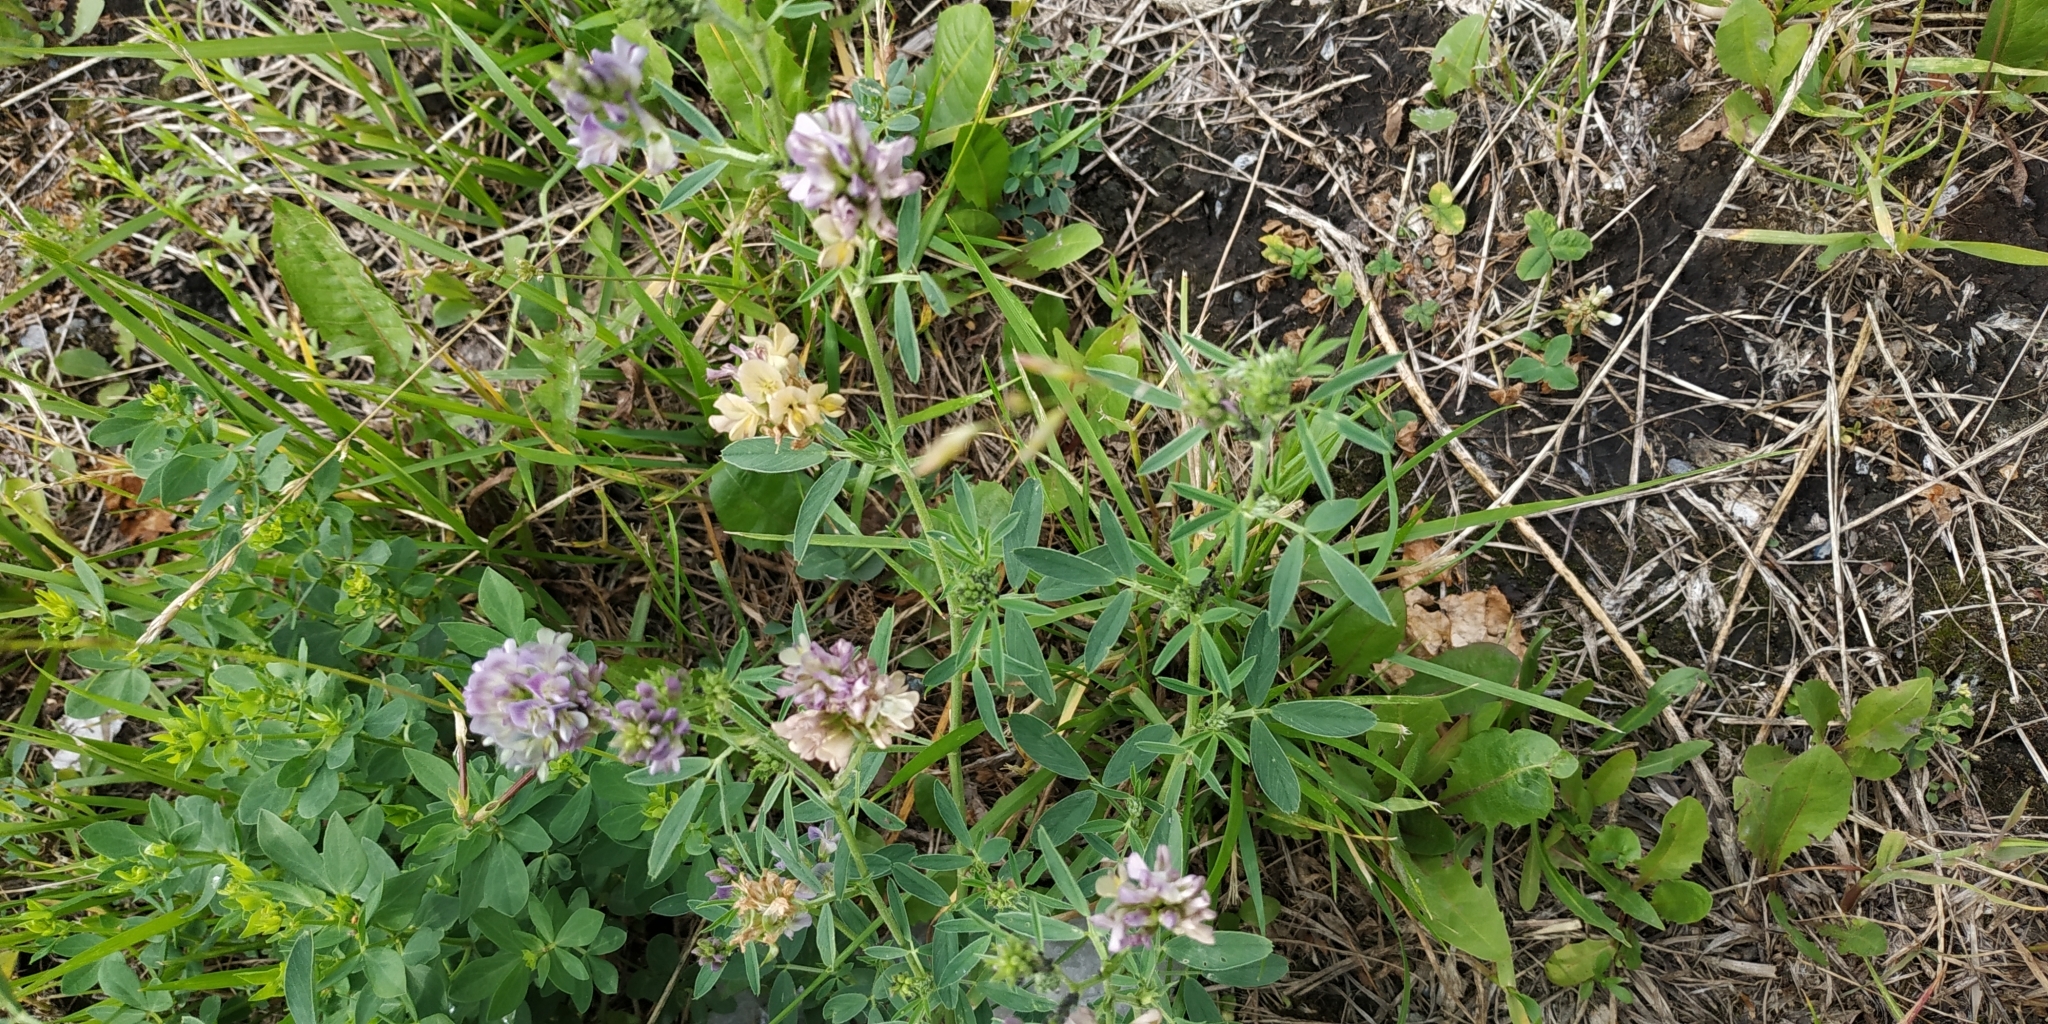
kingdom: Plantae
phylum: Tracheophyta
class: Magnoliopsida
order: Fabales
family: Fabaceae
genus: Medicago
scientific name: Medicago varia
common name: Sand lucerne
